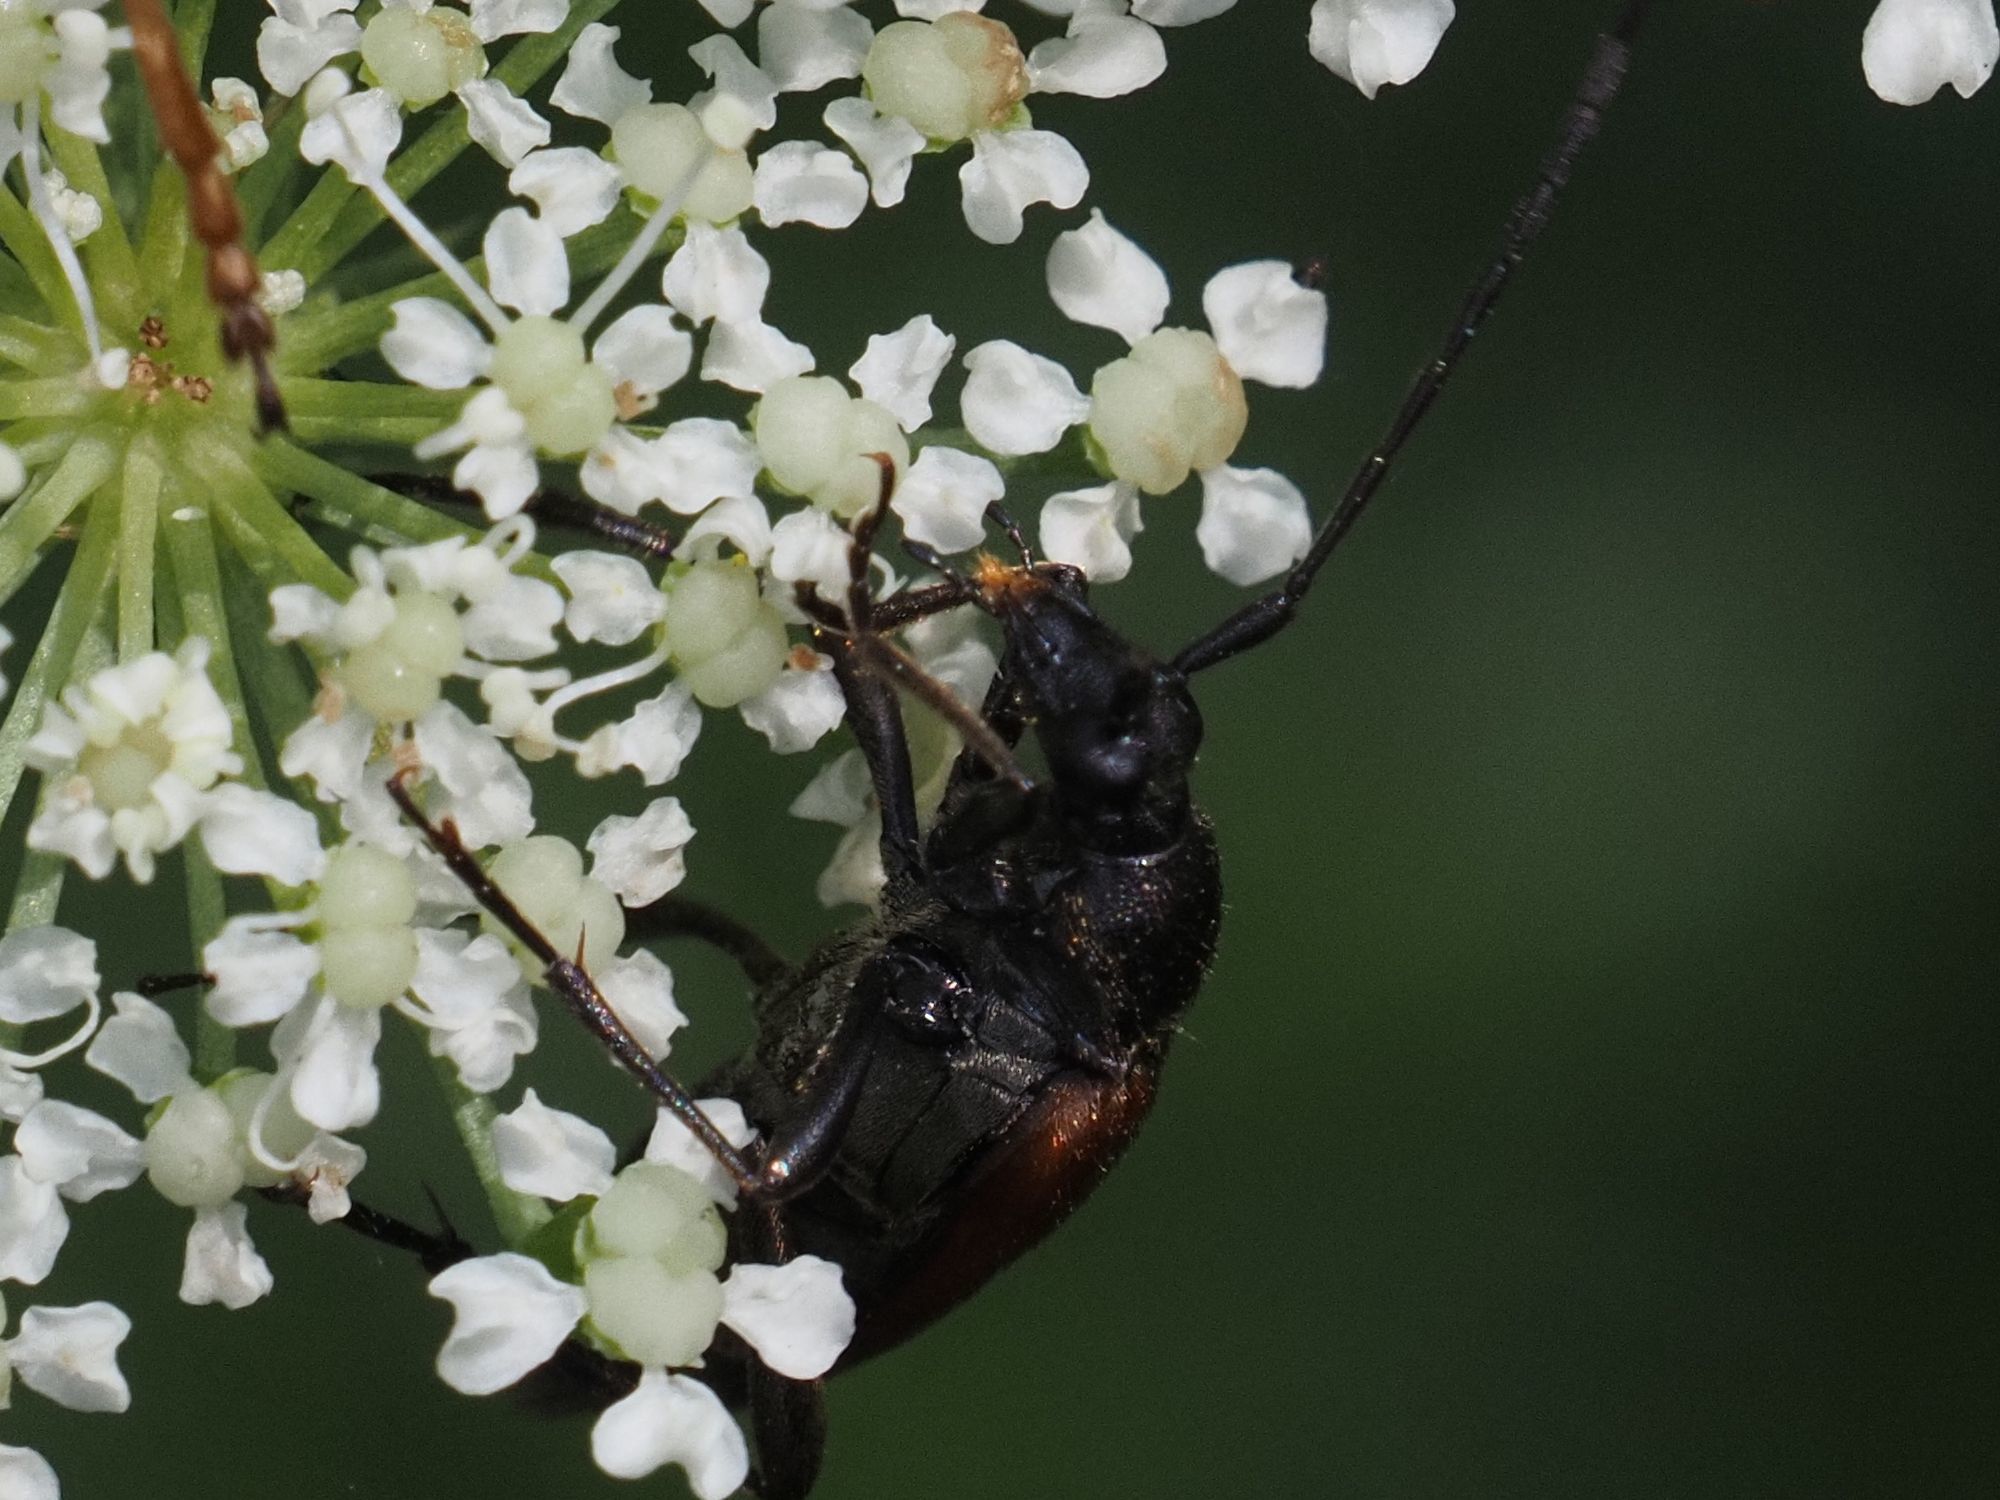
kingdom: Animalia
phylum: Arthropoda
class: Insecta
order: Coleoptera
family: Cerambycidae
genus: Stenurella
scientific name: Stenurella melanura
